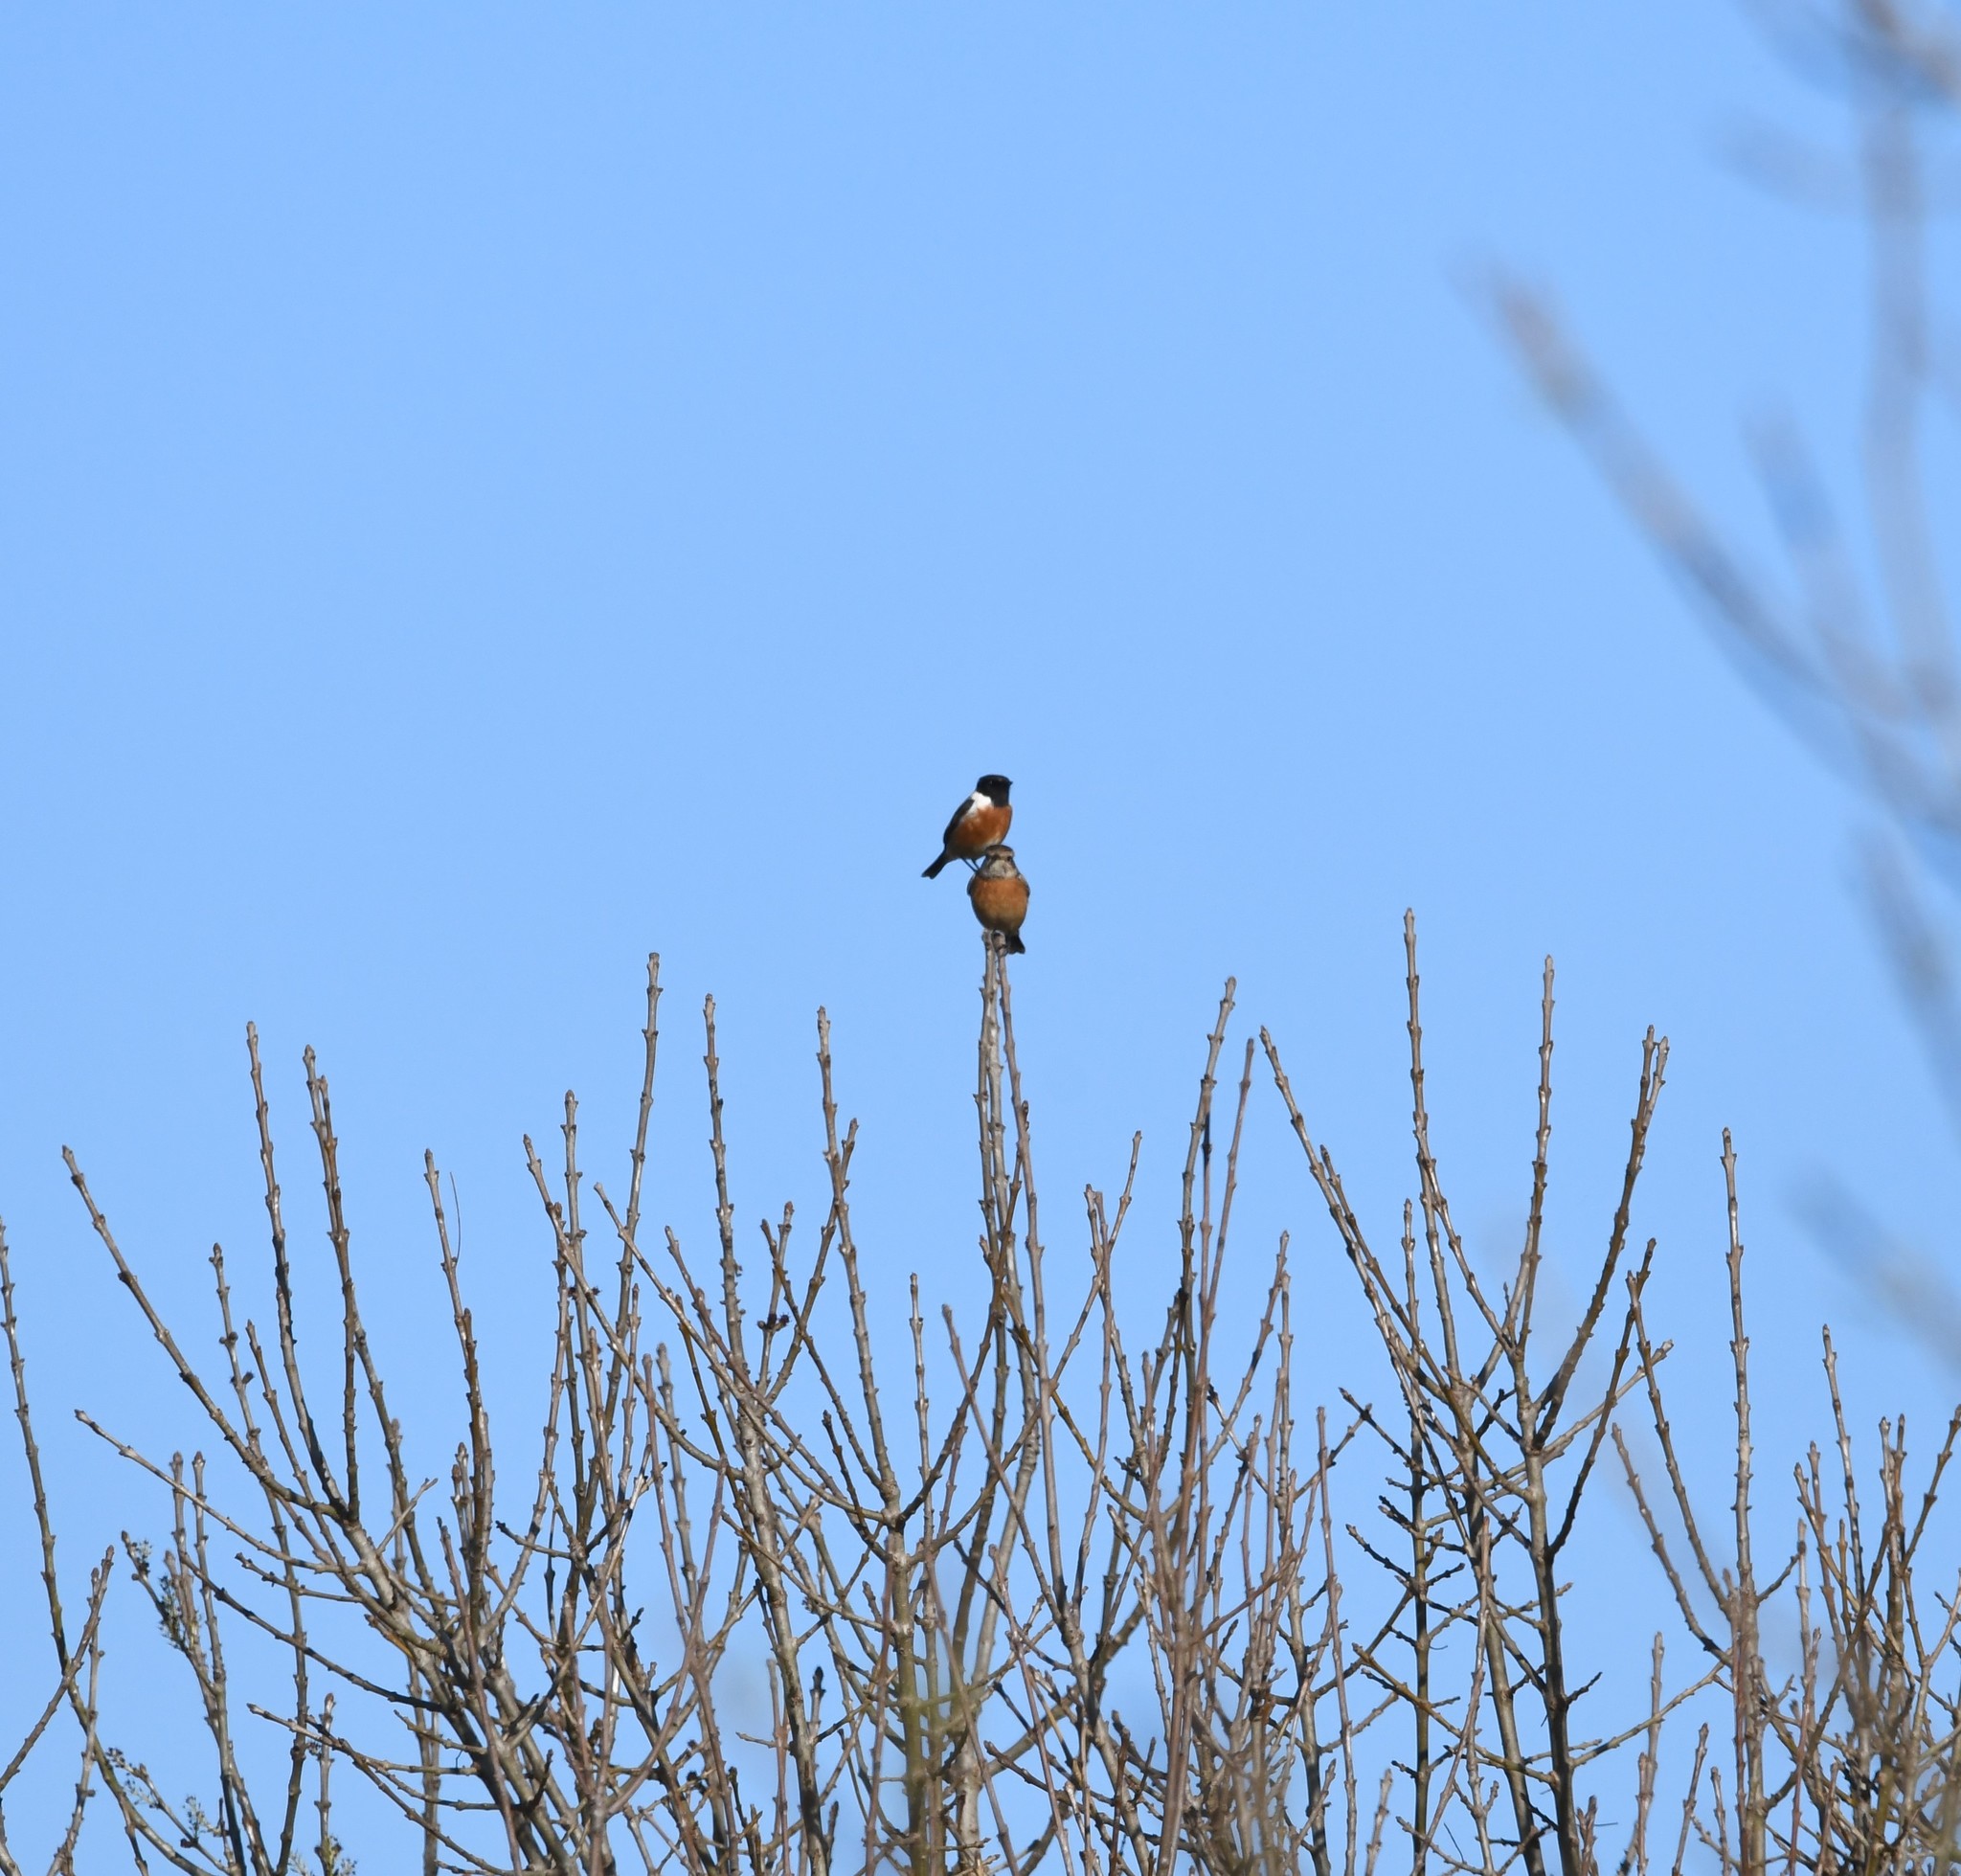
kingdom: Animalia
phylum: Chordata
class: Aves
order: Passeriformes
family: Muscicapidae
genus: Saxicola
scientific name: Saxicola rubicola
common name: European stonechat
